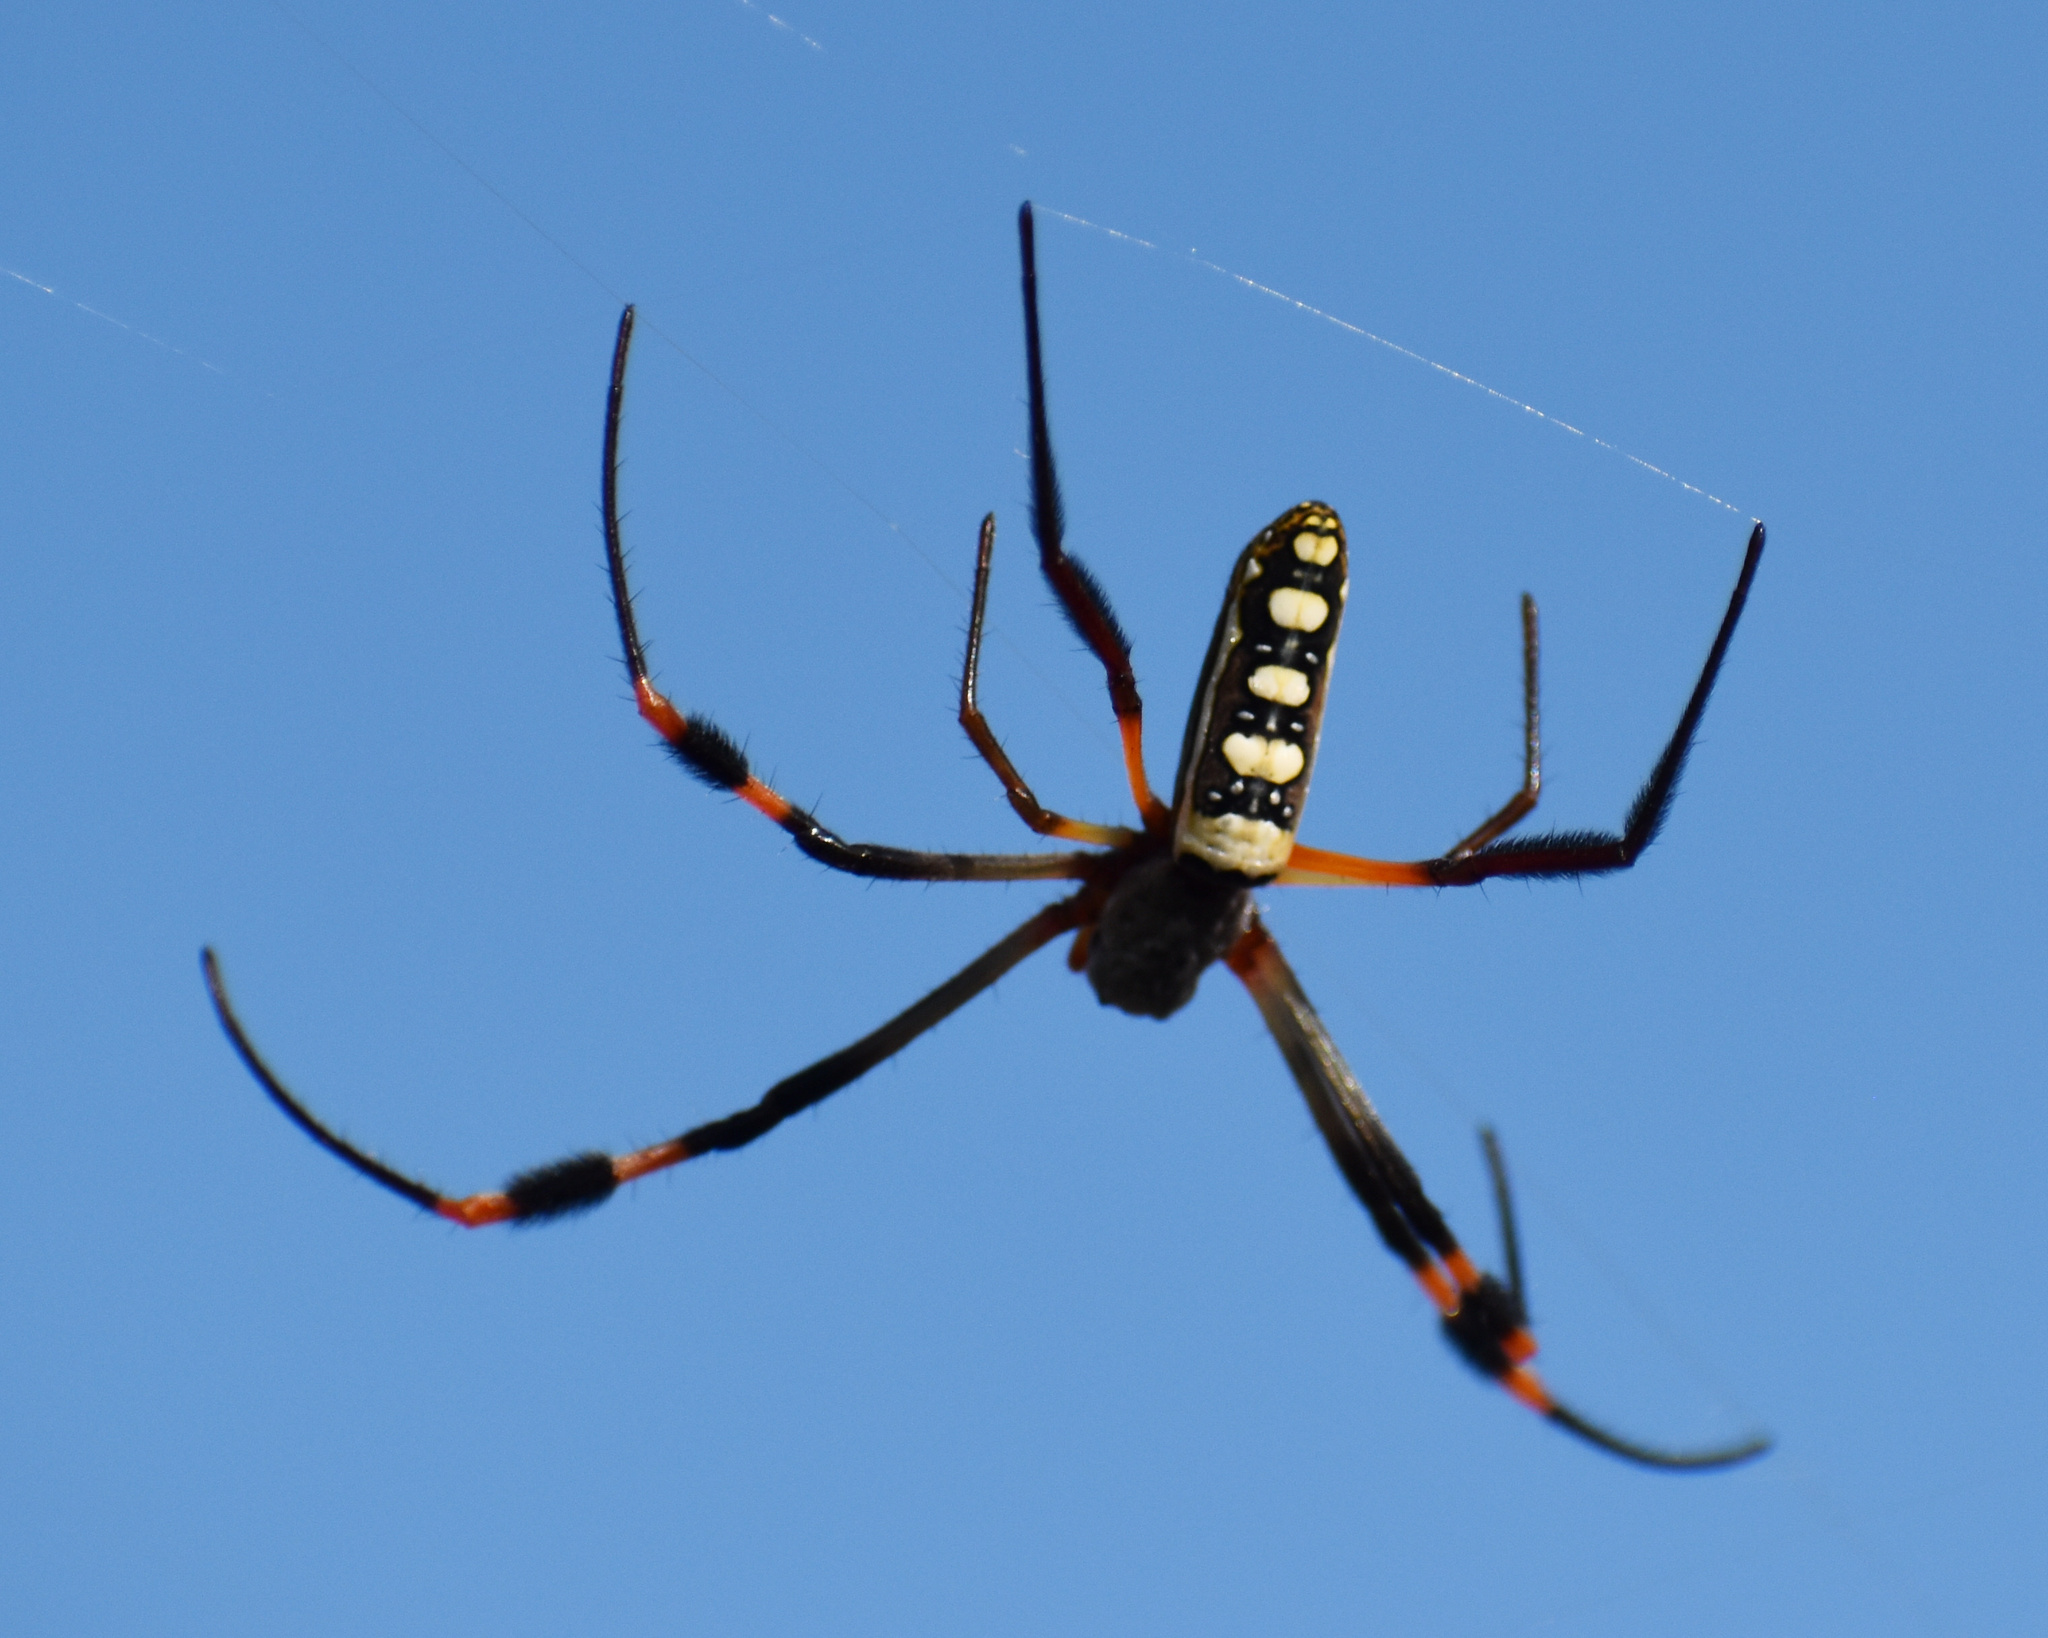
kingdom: Animalia
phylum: Arthropoda
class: Arachnida
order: Araneae
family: Araneidae
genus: Trichonephila
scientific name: Trichonephila inaurata
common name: Red-legged golden orb weaver
